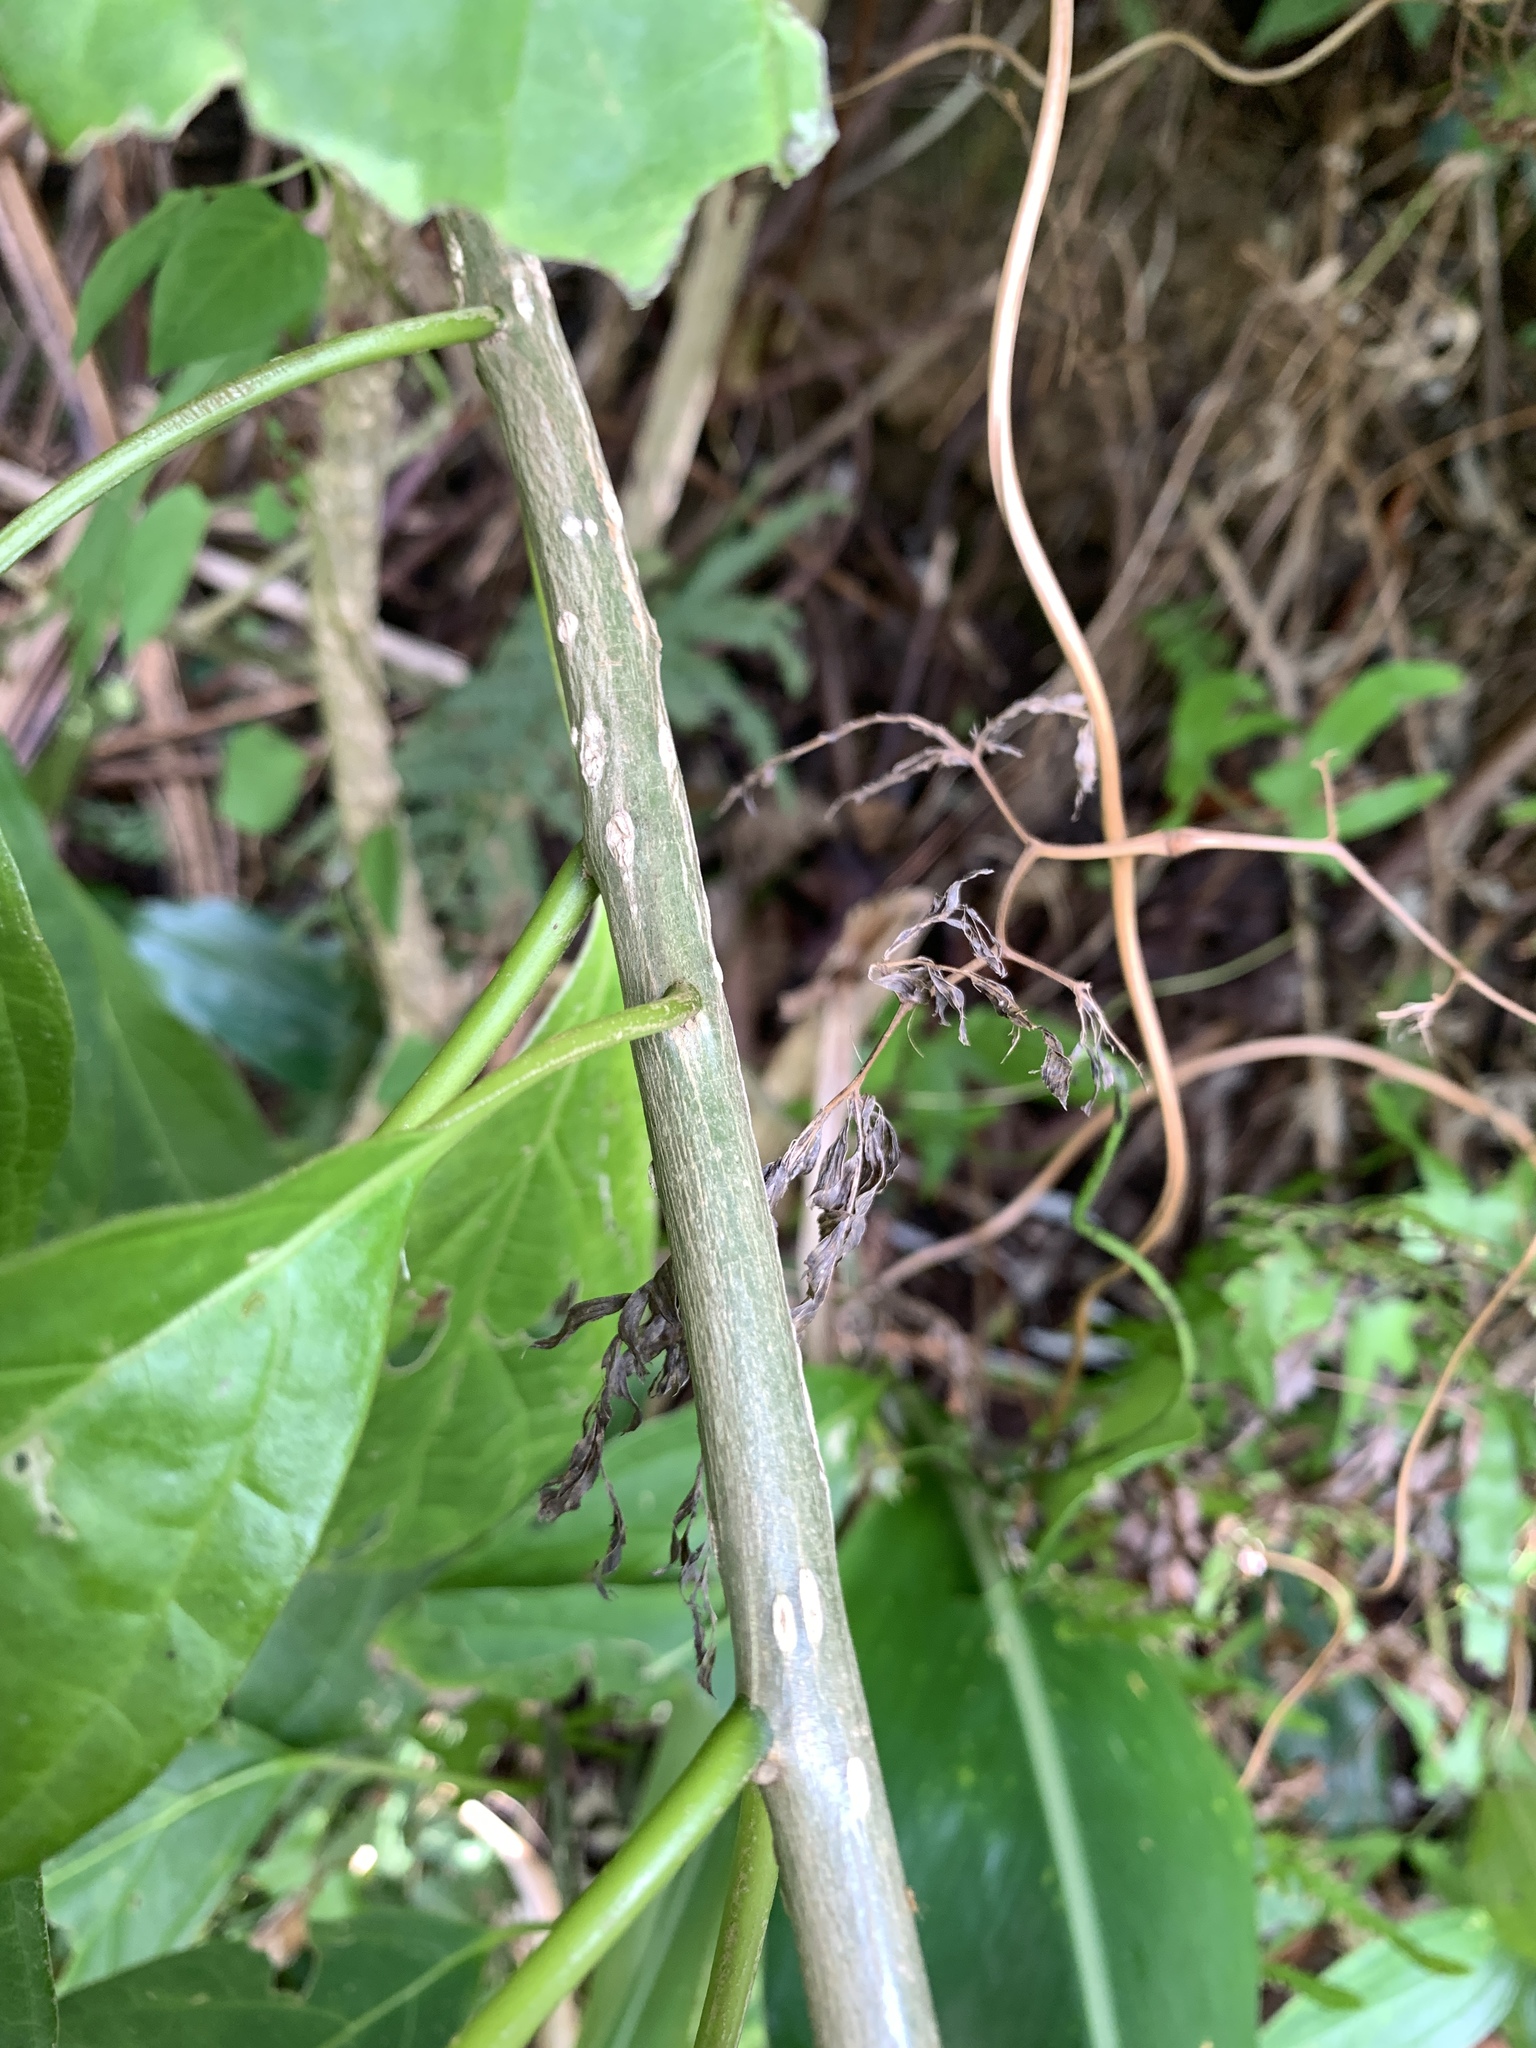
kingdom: Plantae
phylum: Tracheophyta
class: Magnoliopsida
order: Icacinales
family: Icacinaceae
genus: Nothapodytes
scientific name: Nothapodytes nimmoniana
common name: Nothapodytes
